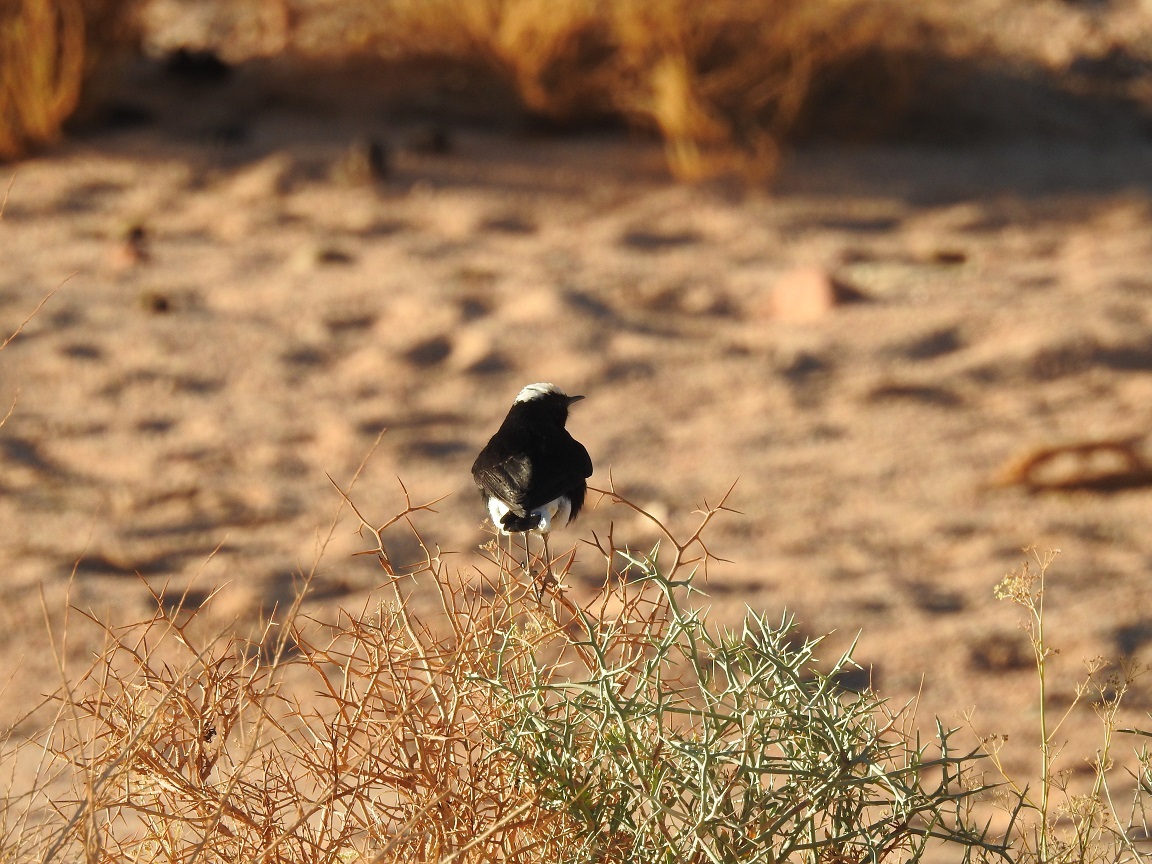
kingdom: Animalia
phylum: Chordata
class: Aves
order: Passeriformes
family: Muscicapidae
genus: Oenanthe
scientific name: Oenanthe leucopyga
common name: White-crowned wheatear
